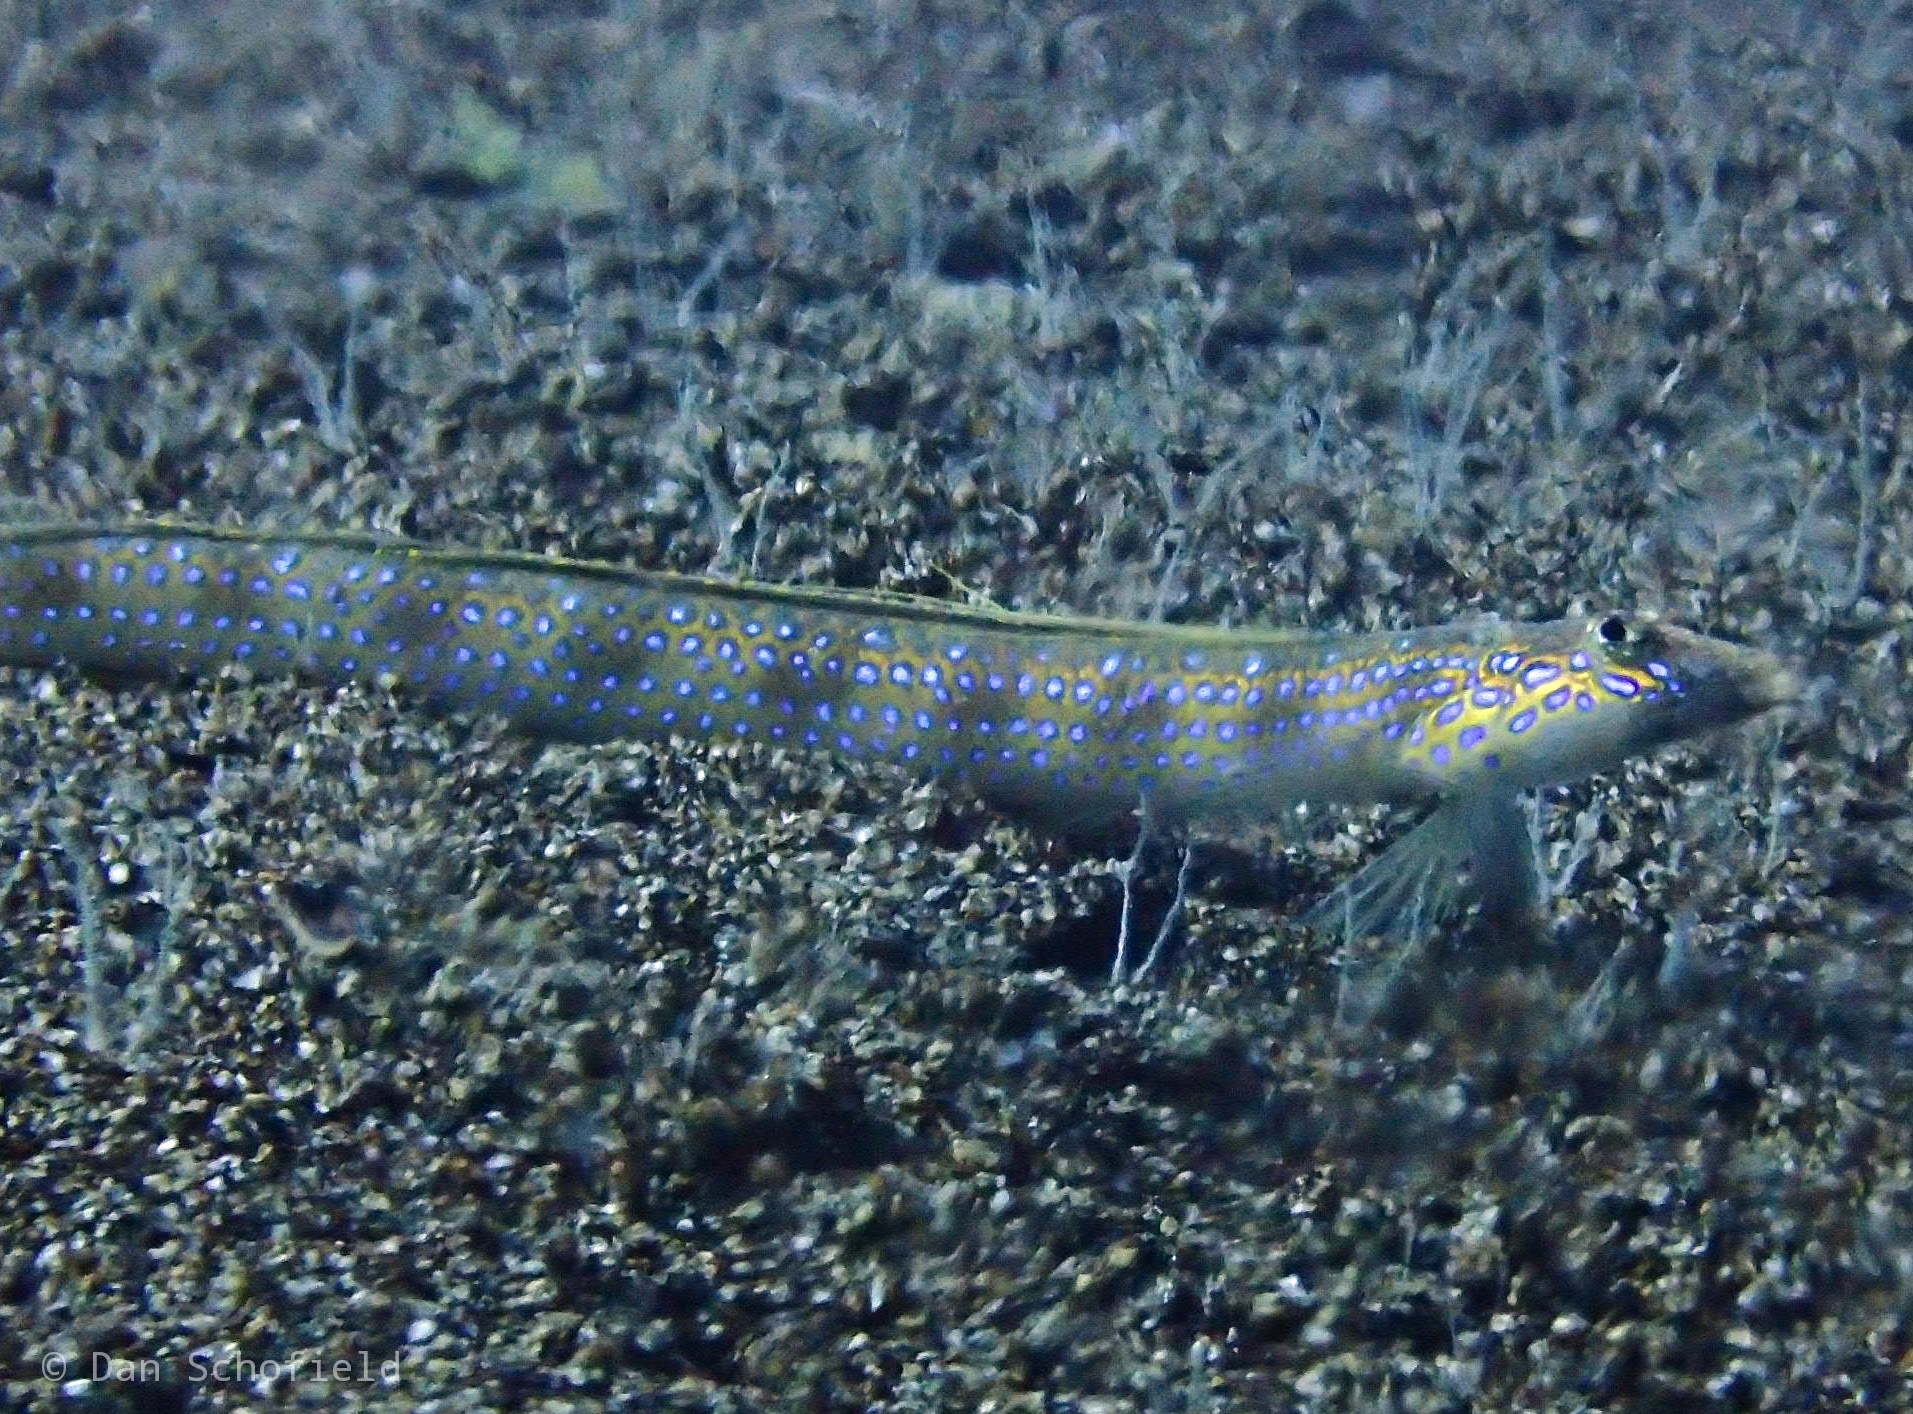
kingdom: Animalia
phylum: Chordata
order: Perciformes
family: Trichonotidae
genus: Trichonotus
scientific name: Trichonotus setiger
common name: Spotted sand-diver
